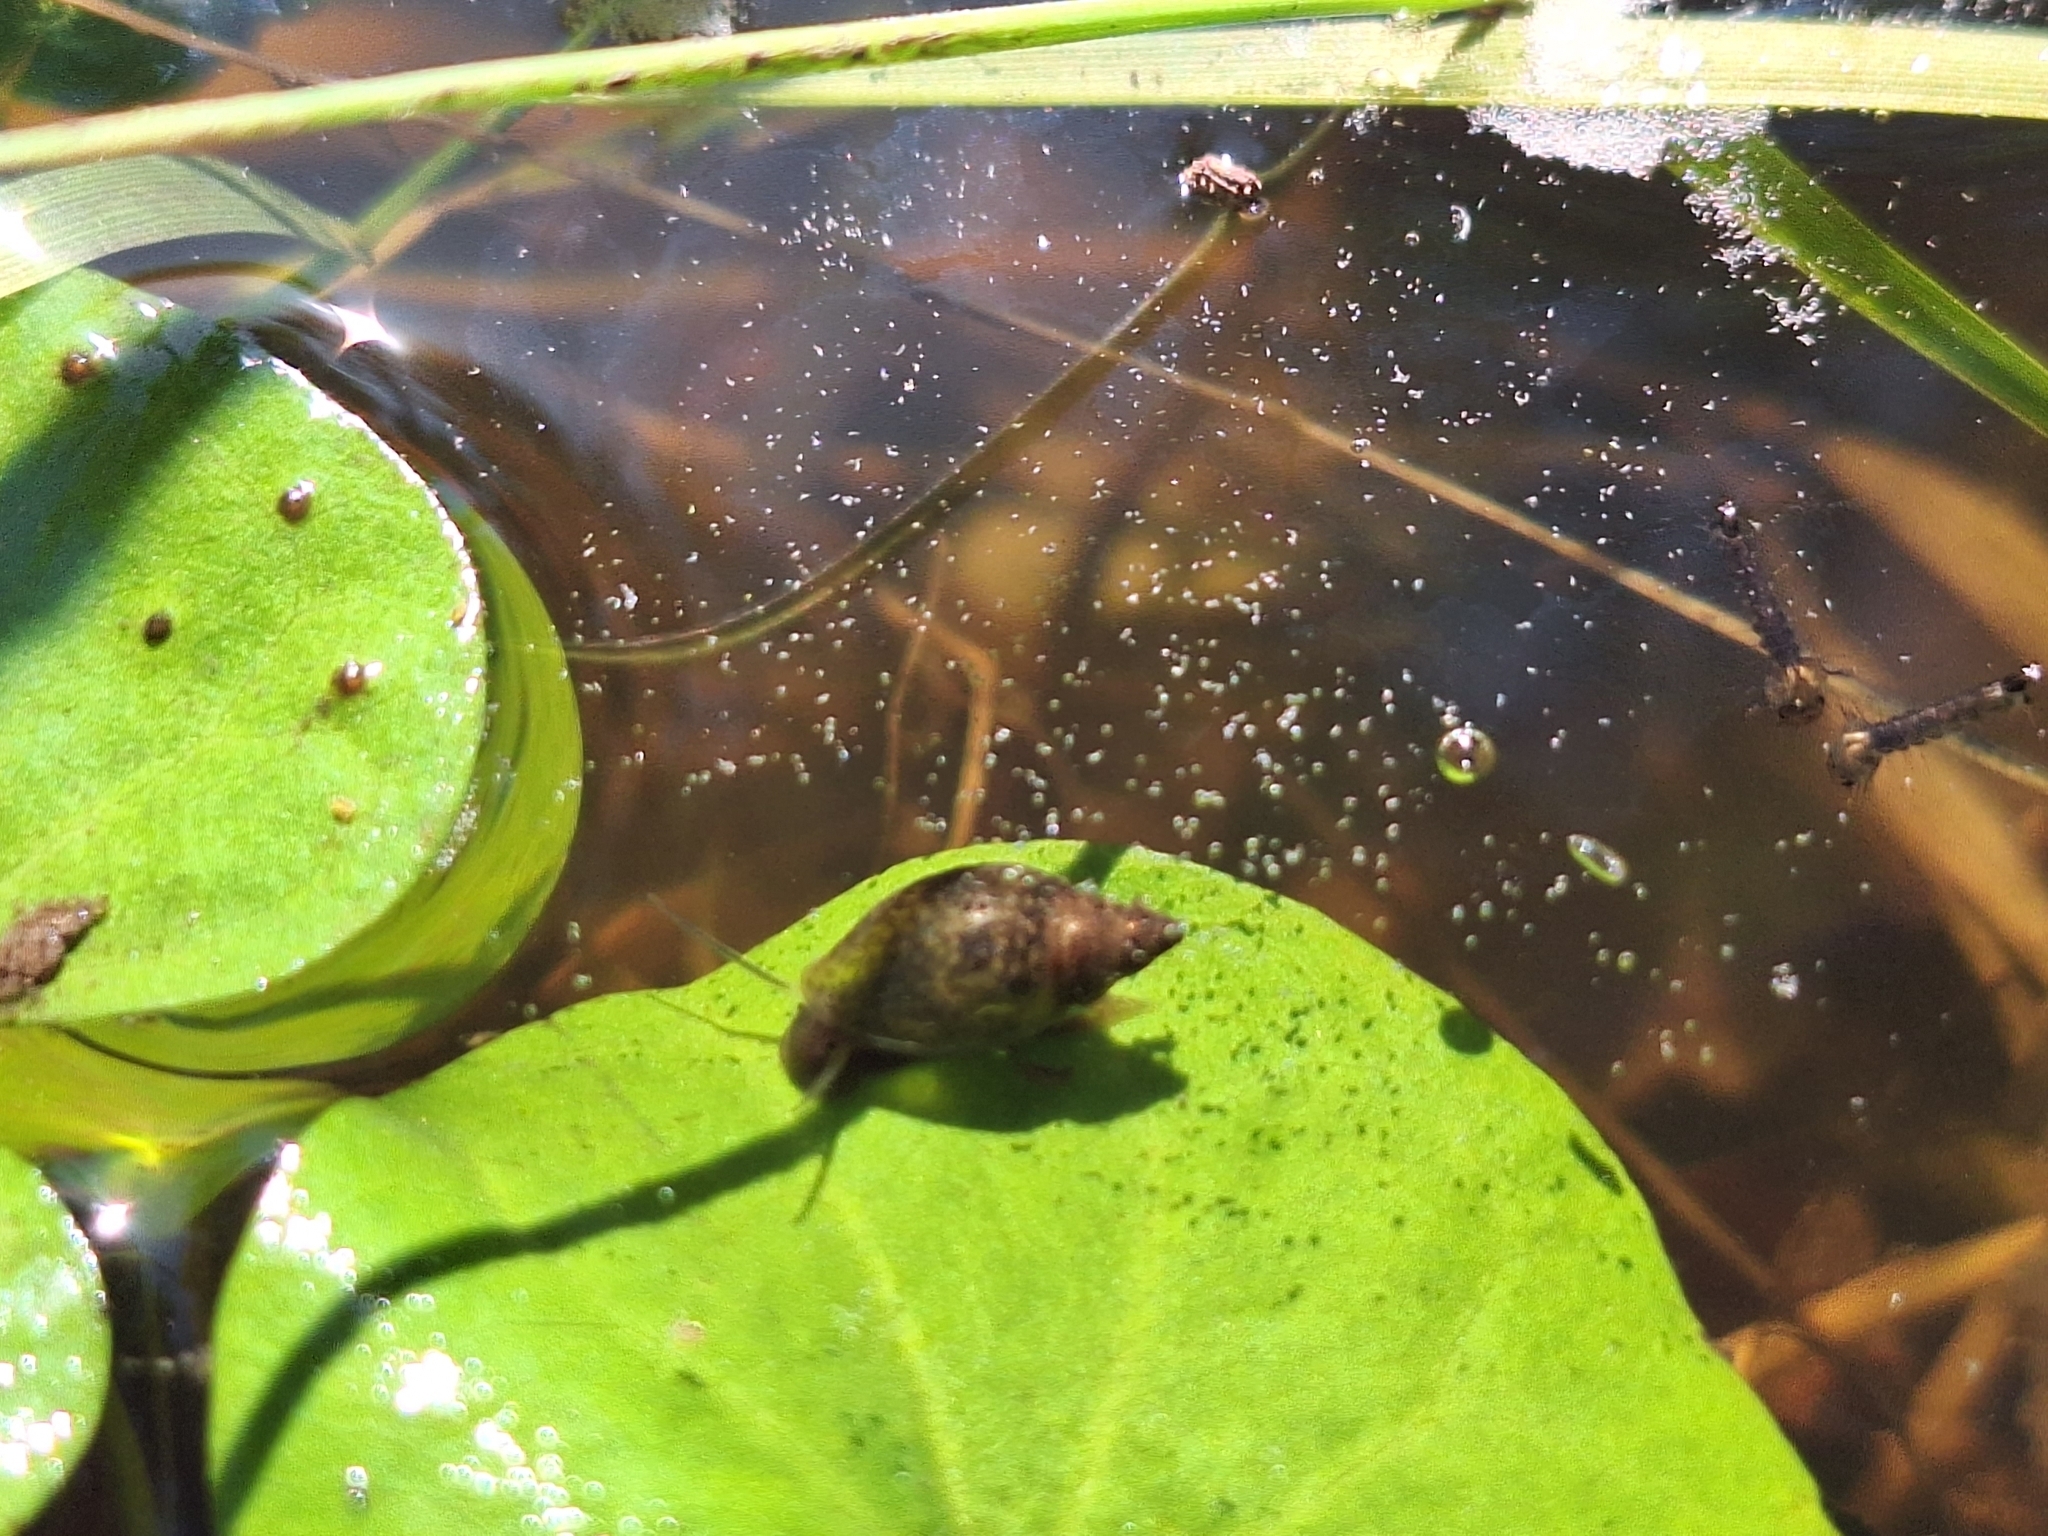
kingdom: Animalia
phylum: Mollusca
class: Gastropoda
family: Physidae
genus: Physella
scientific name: Physella acuta
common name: European physa
